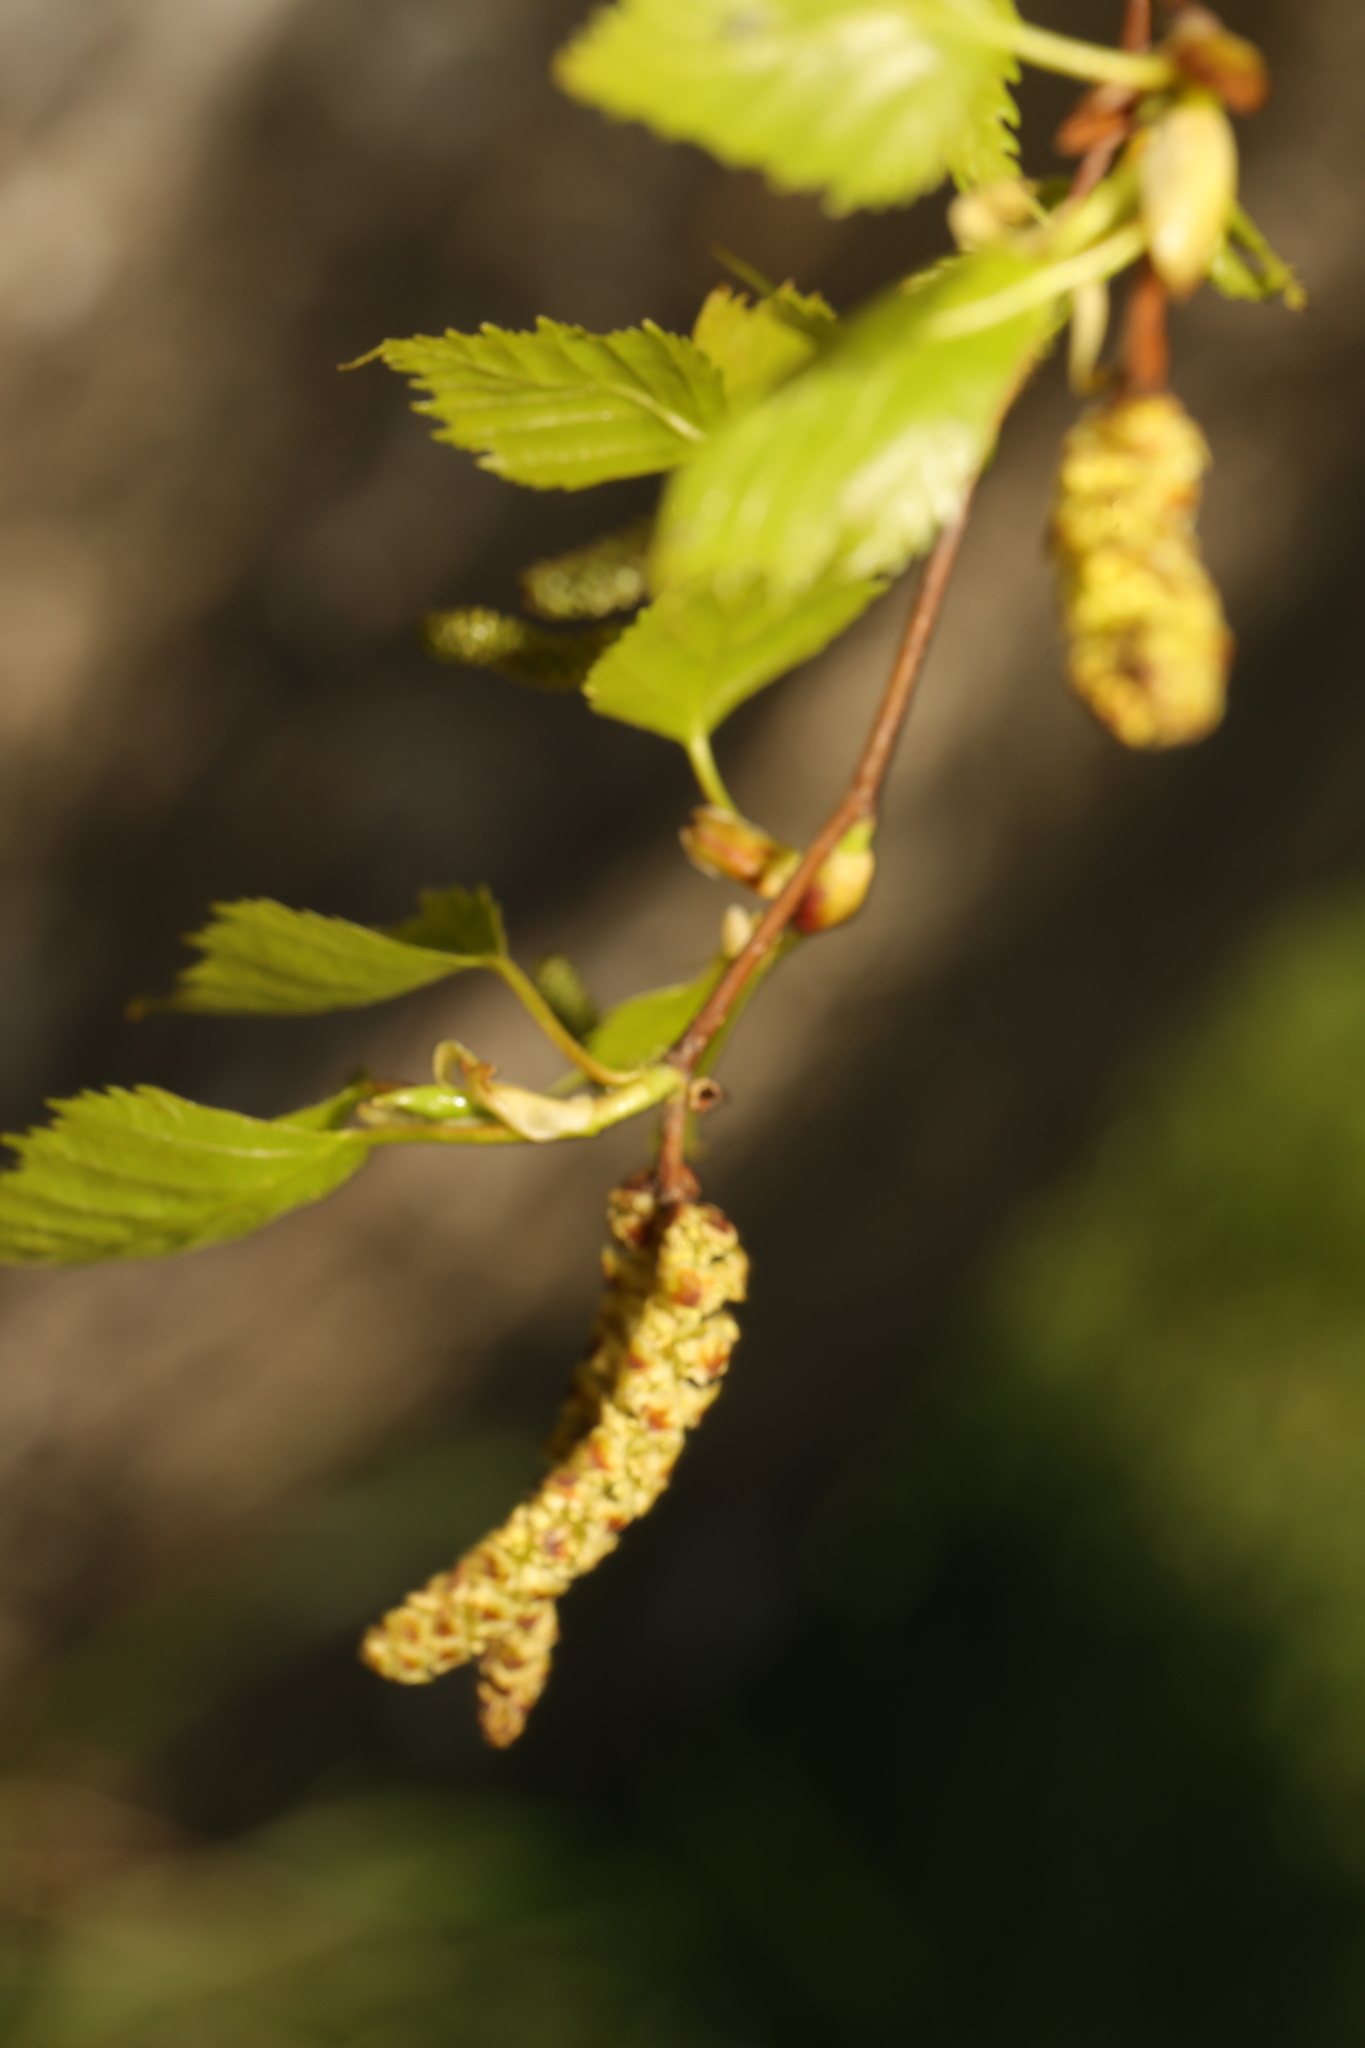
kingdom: Plantae
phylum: Tracheophyta
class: Magnoliopsida
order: Fagales
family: Betulaceae
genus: Betula
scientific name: Betula pendula
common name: Silver birch
